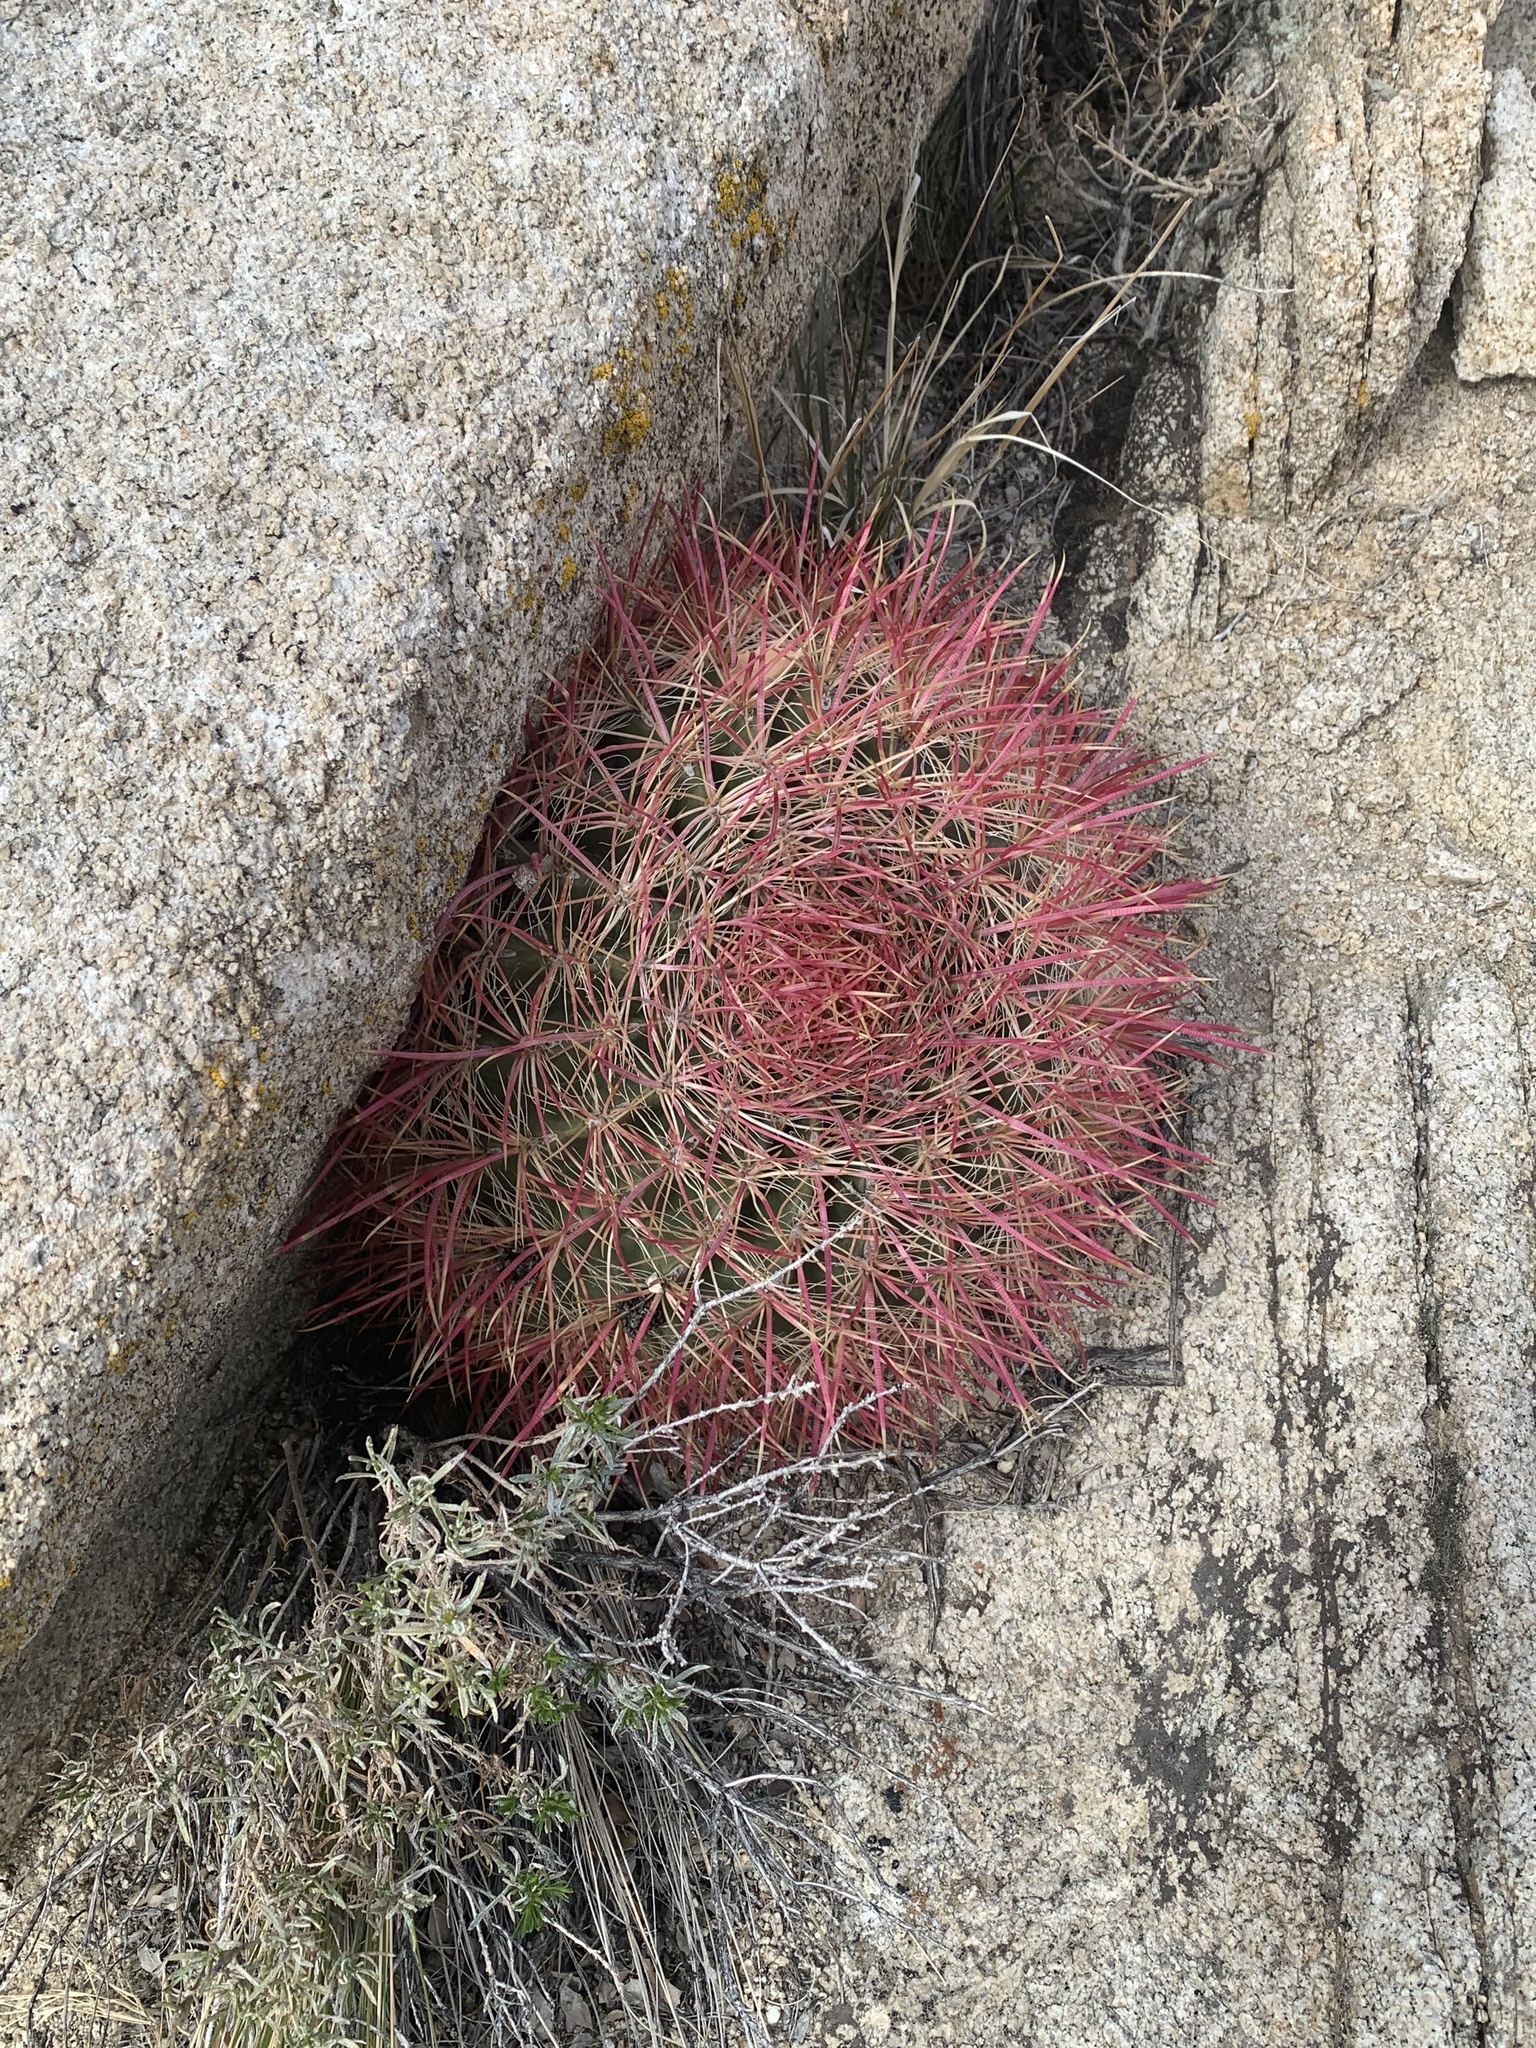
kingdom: Plantae
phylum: Tracheophyta
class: Magnoliopsida
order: Caryophyllales
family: Cactaceae
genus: Ferocactus
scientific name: Ferocactus cylindraceus
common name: California barrel cactus
